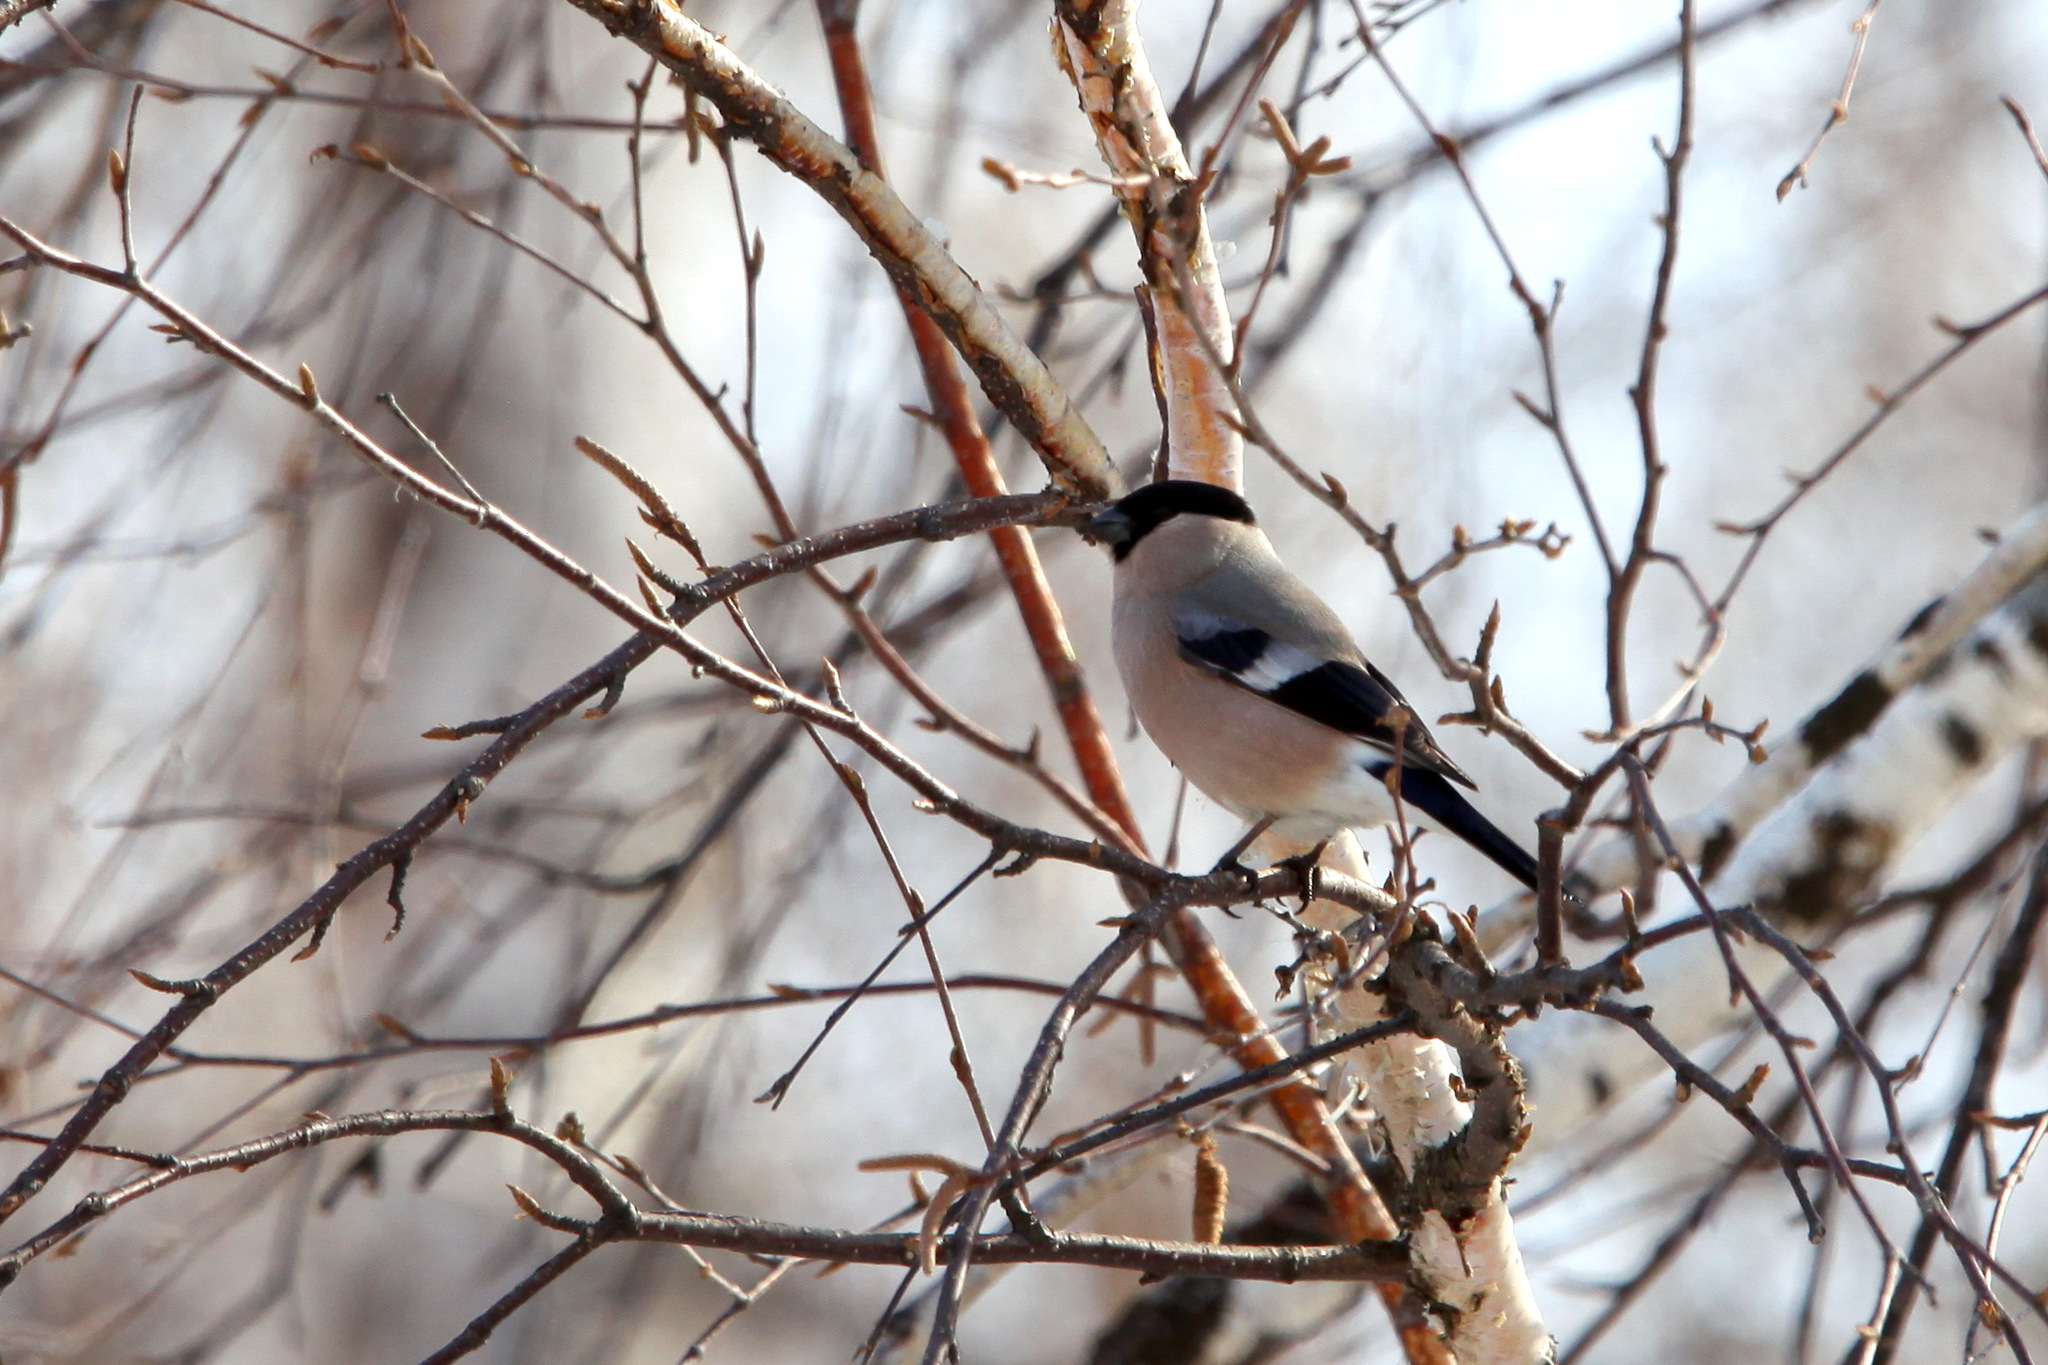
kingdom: Animalia
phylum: Chordata
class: Aves
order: Passeriformes
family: Fringillidae
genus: Pyrrhula
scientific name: Pyrrhula pyrrhula
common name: Eurasian bullfinch
